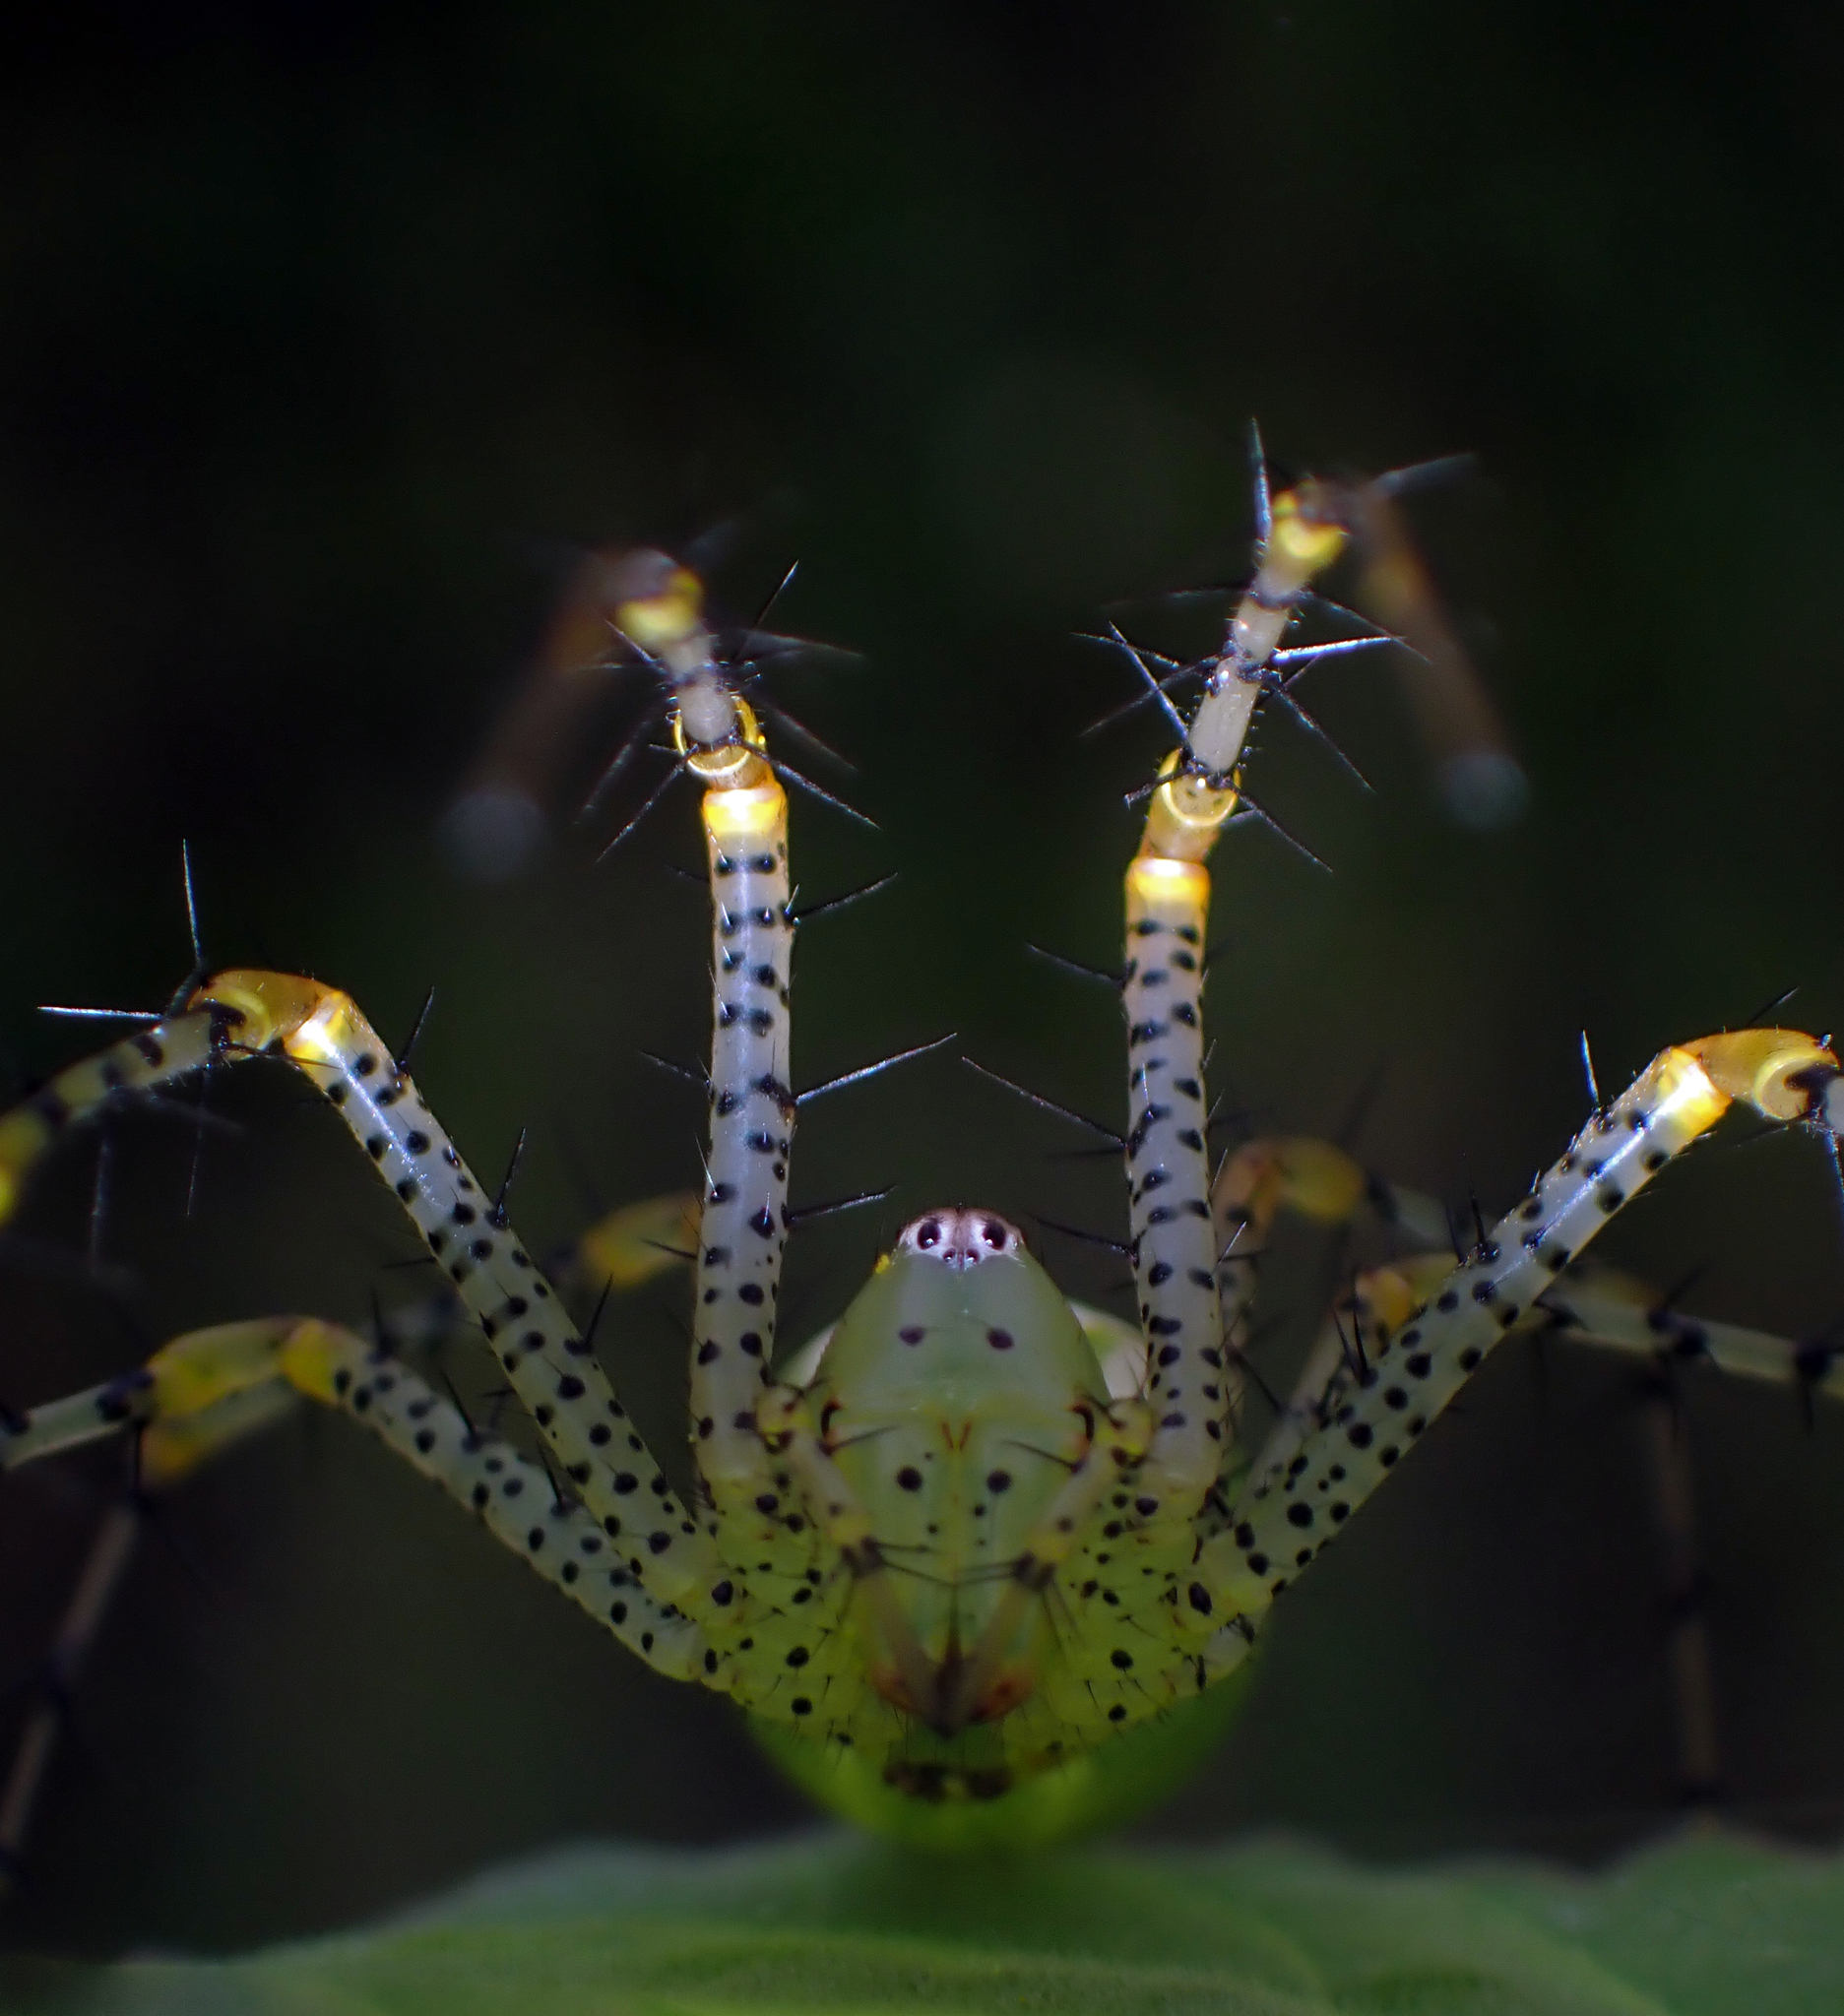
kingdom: Animalia
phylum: Arthropoda
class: Arachnida
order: Araneae
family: Oxyopidae
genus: Peucetia
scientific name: Peucetia viridans
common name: Lynx spiders
